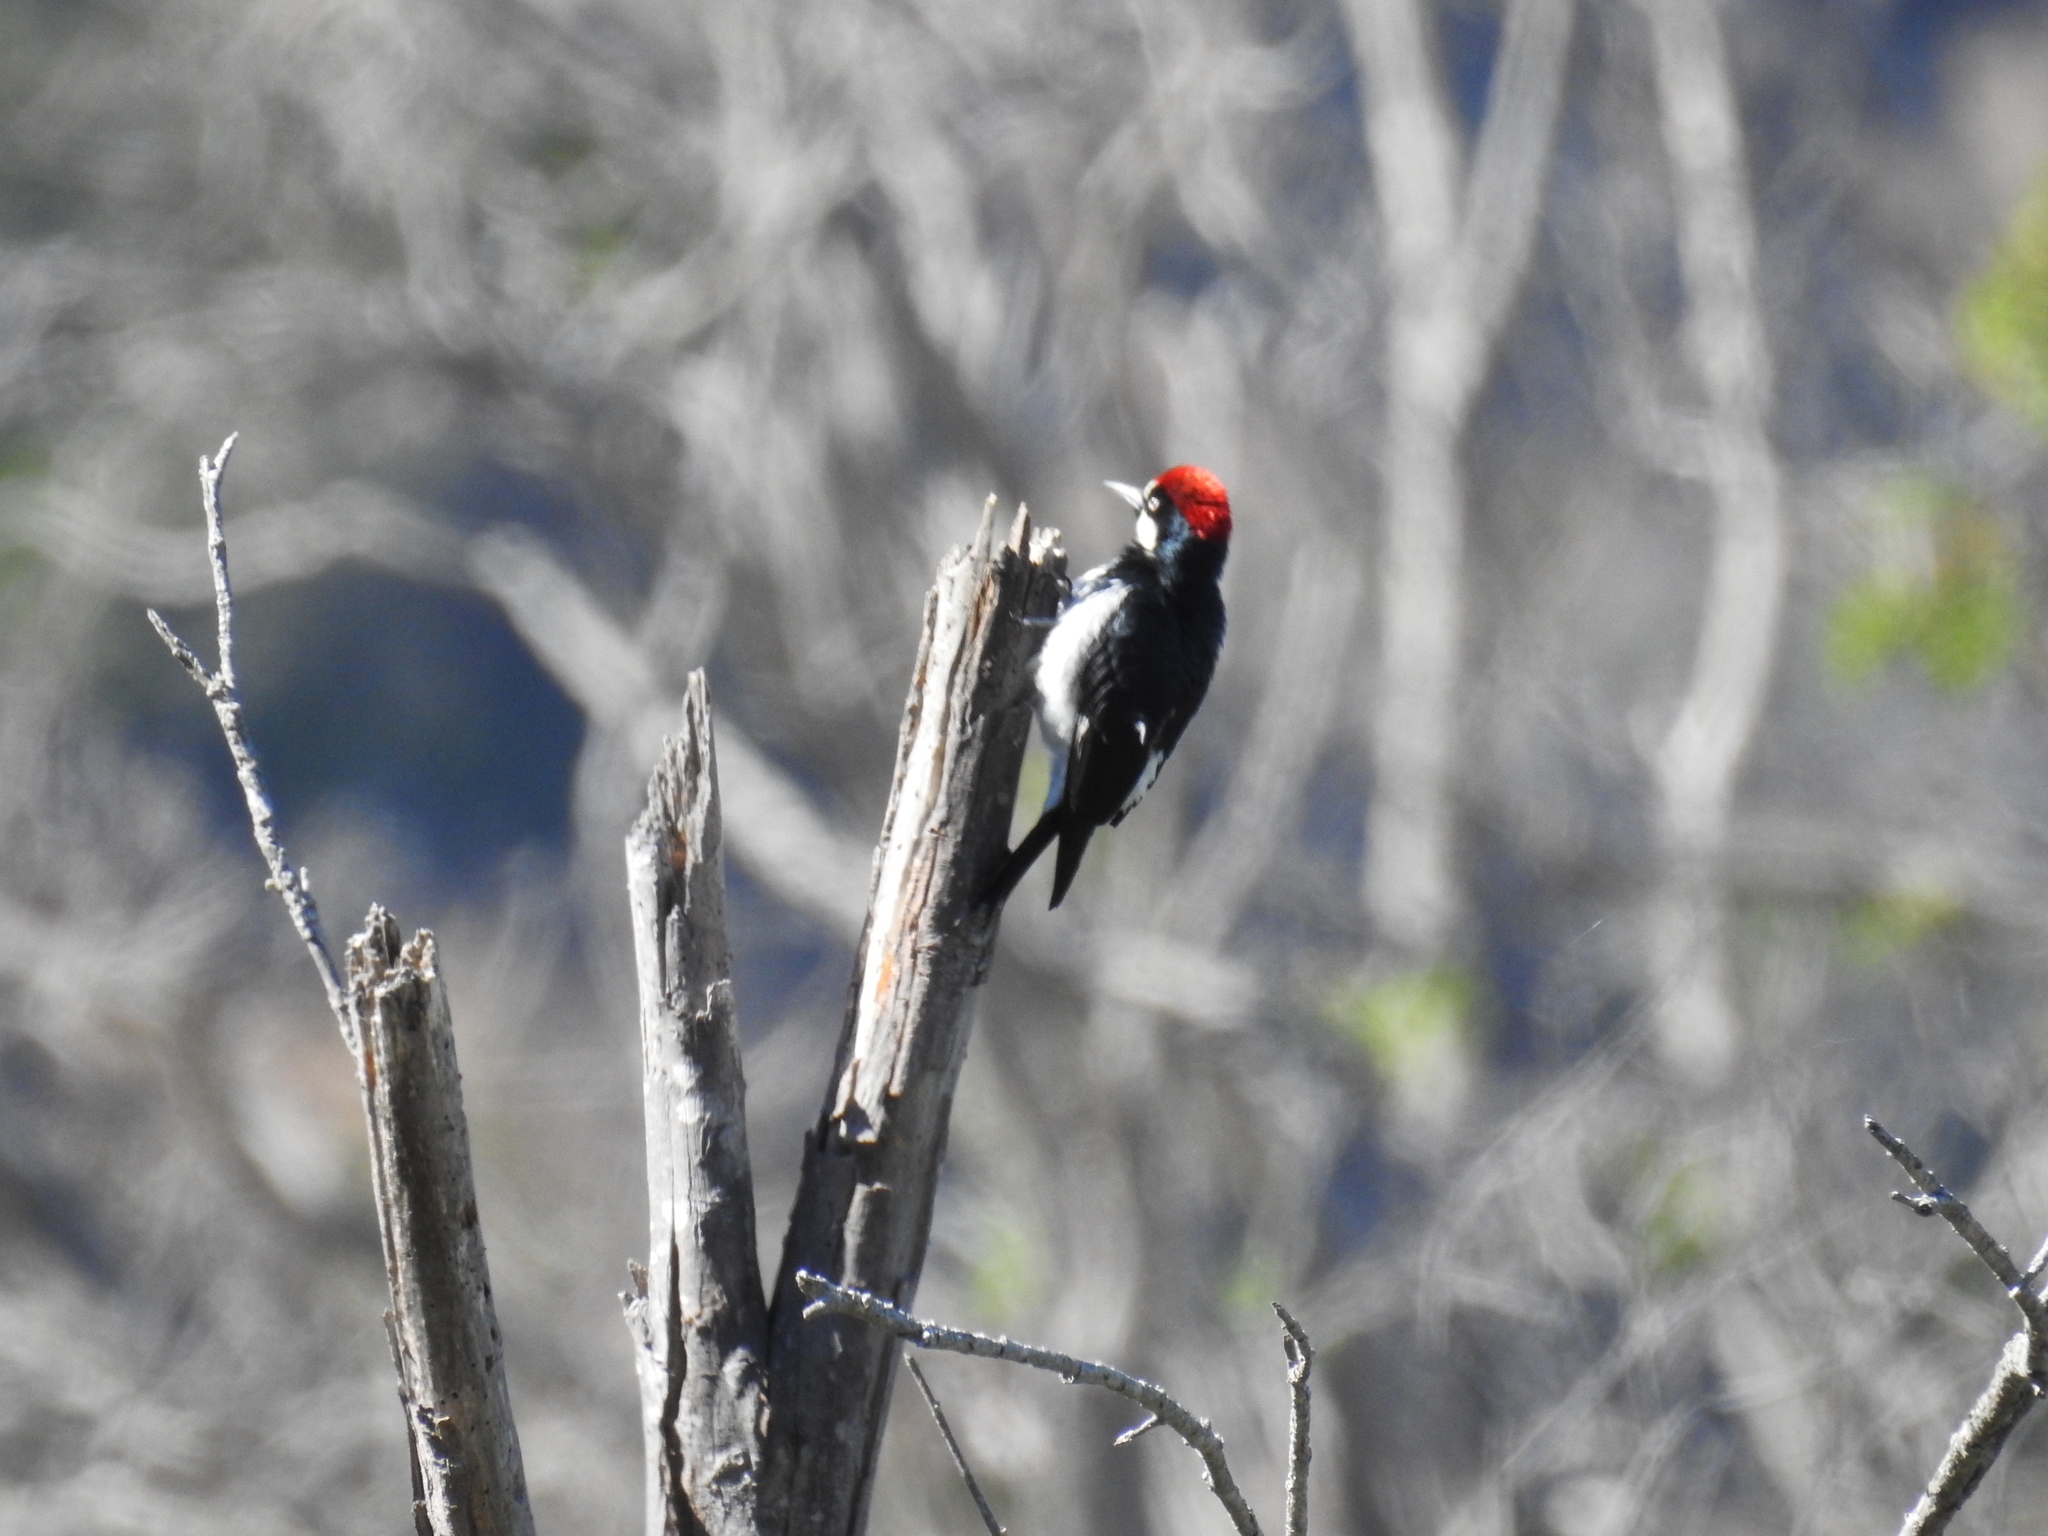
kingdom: Animalia
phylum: Chordata
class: Aves
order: Piciformes
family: Picidae
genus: Melanerpes
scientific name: Melanerpes formicivorus
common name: Acorn woodpecker
